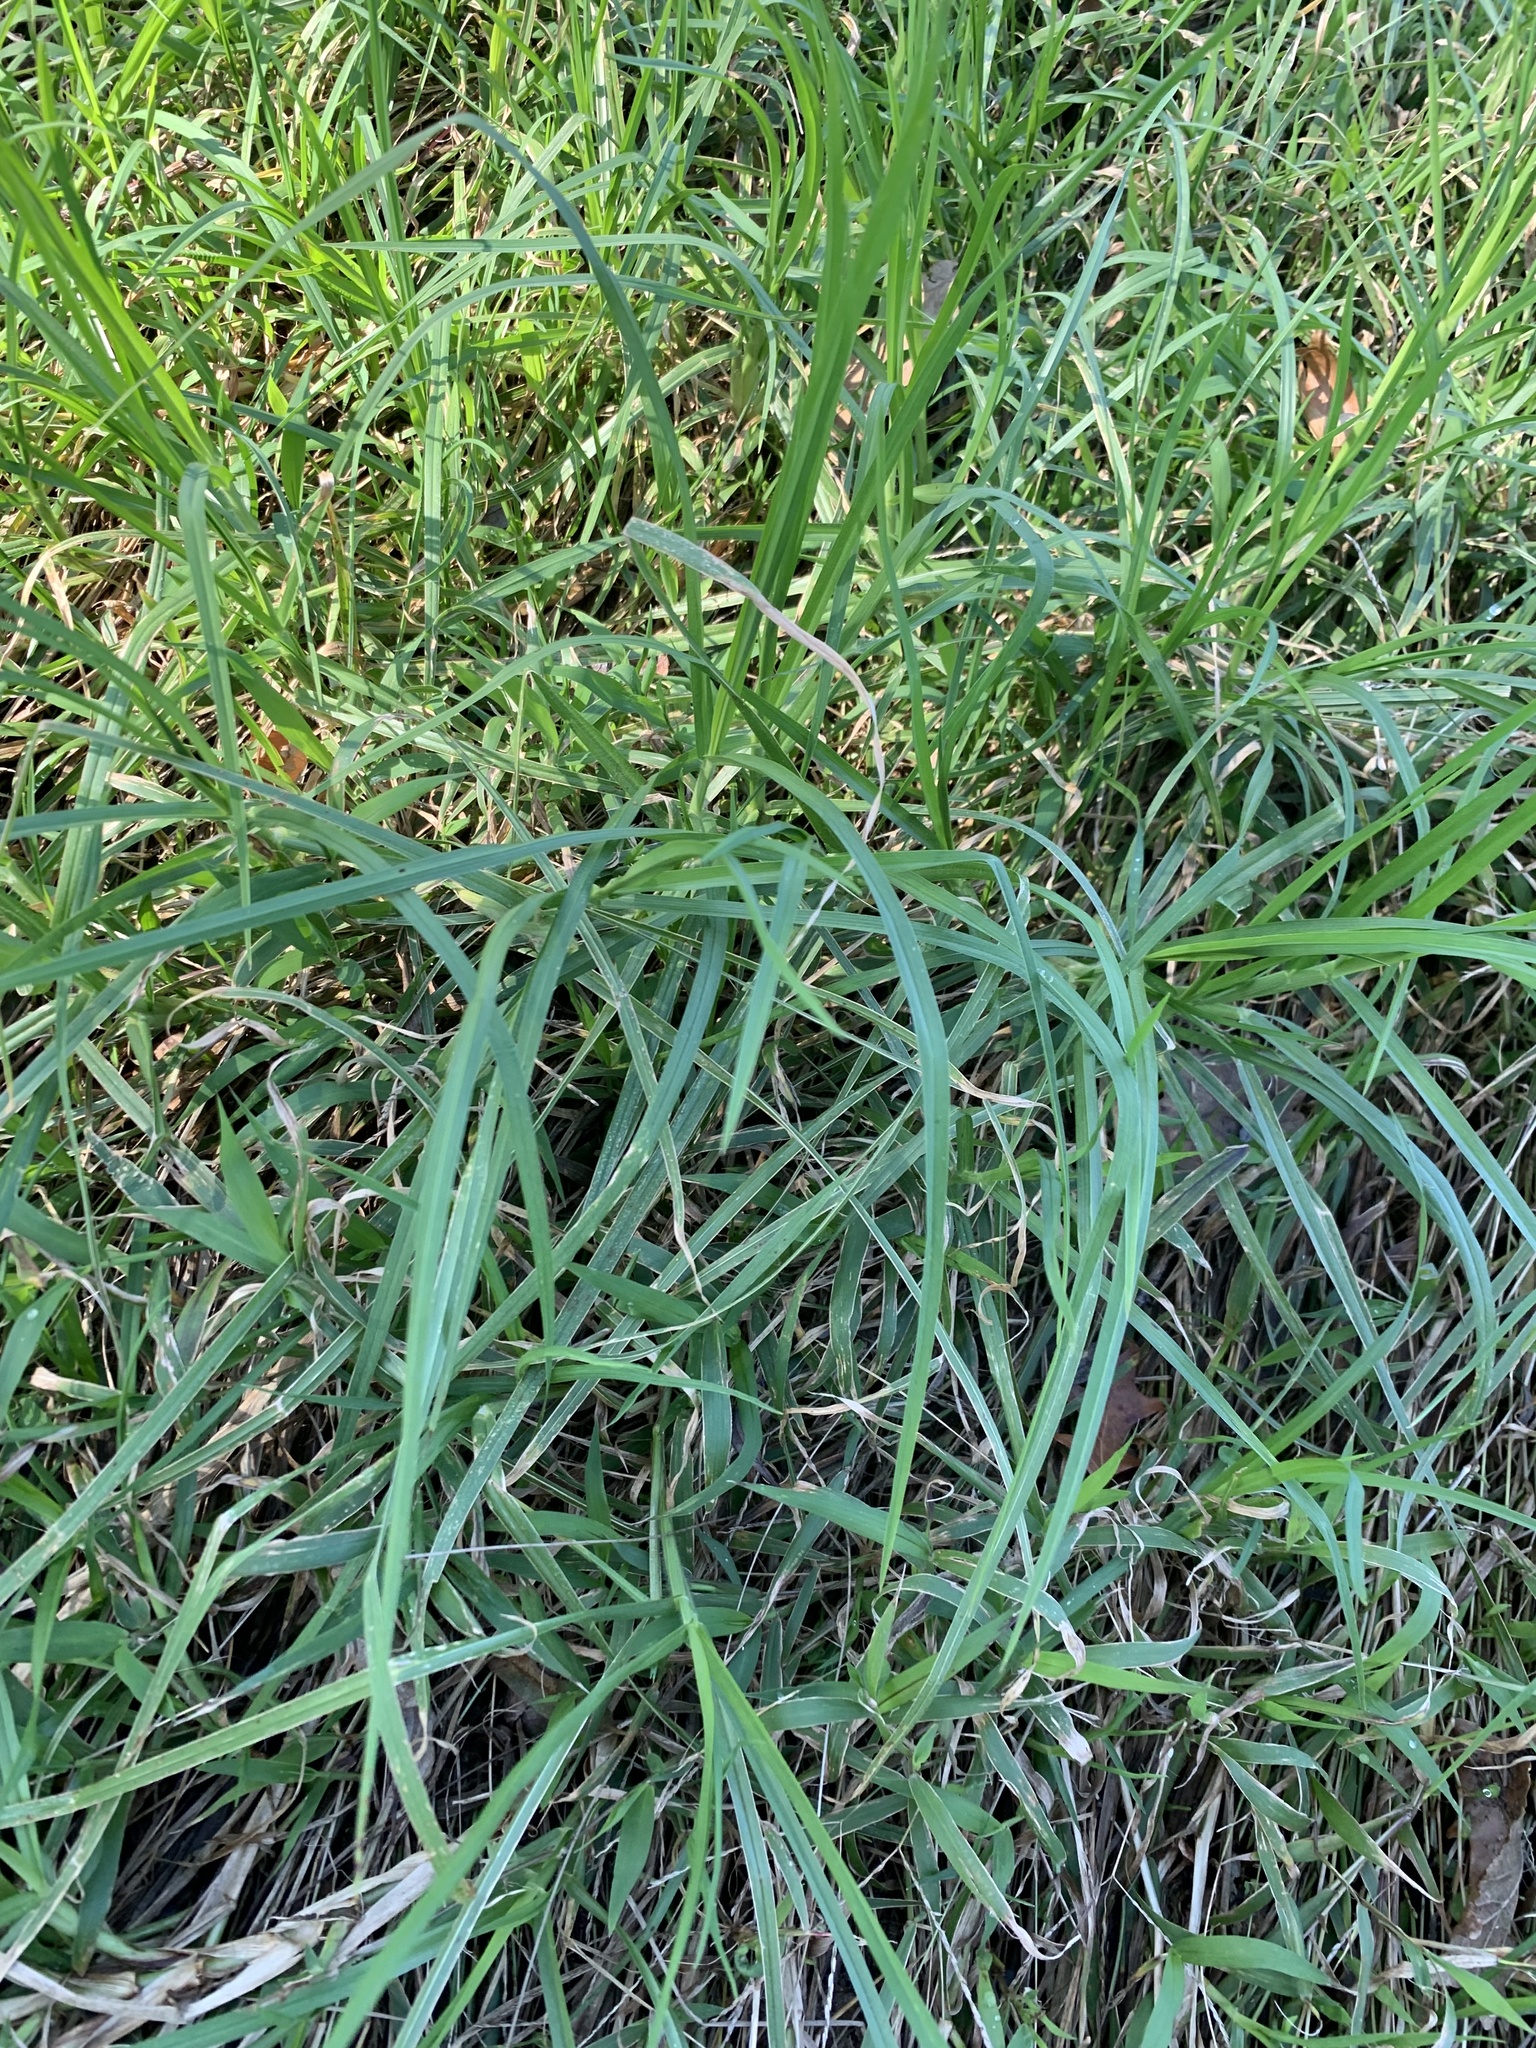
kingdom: Plantae
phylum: Tracheophyta
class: Liliopsida
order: Poales
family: Poaceae
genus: Cenchrus
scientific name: Cenchrus clandestinus
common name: Kikuyugrass
